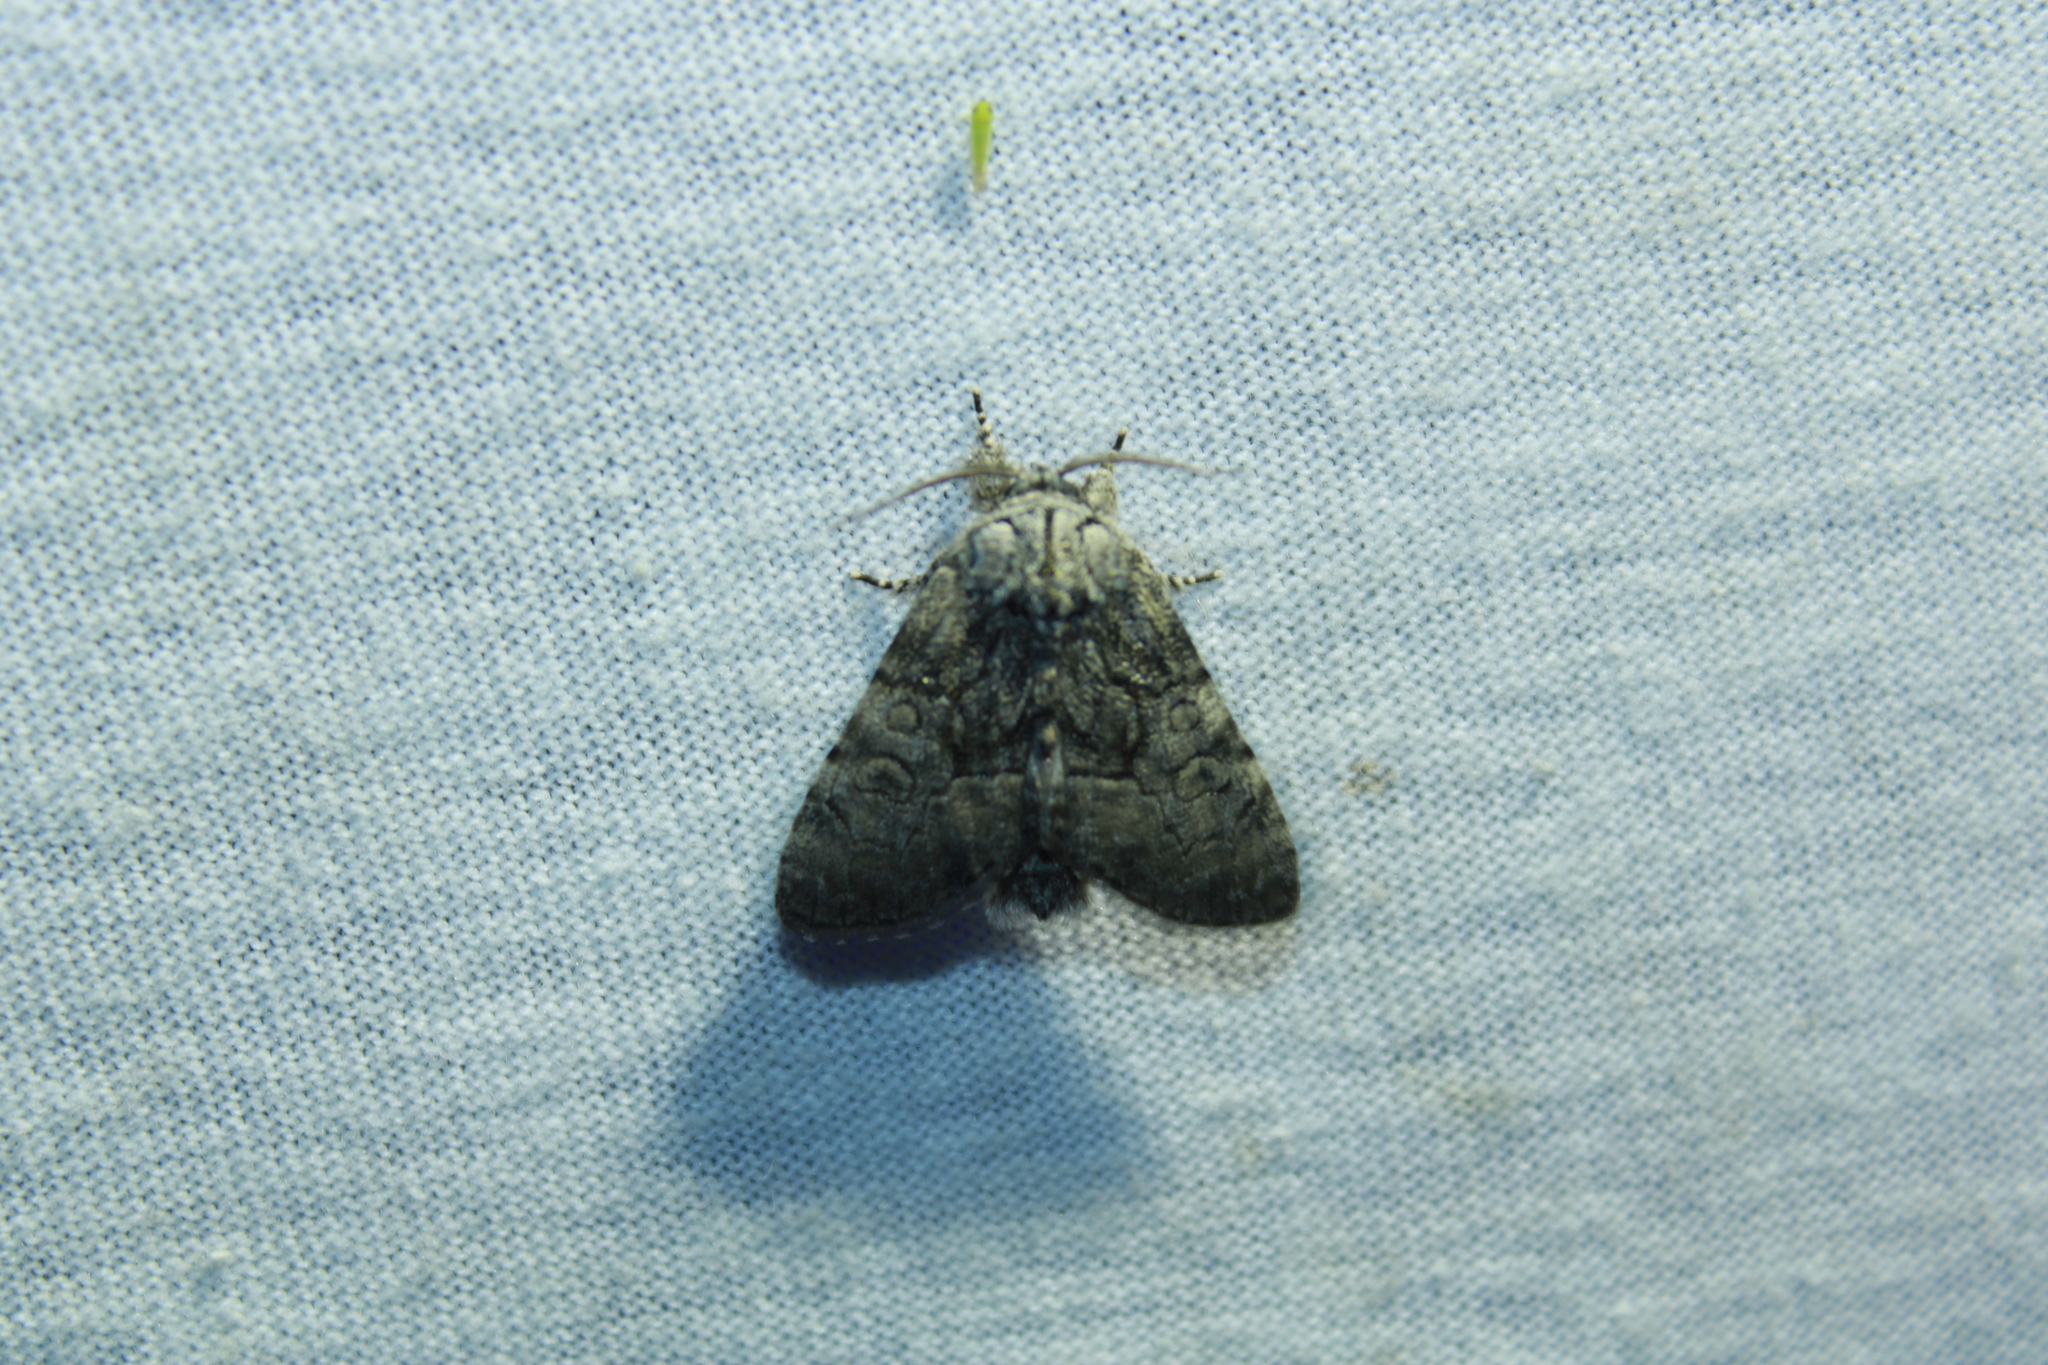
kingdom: Animalia
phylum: Arthropoda
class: Insecta
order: Lepidoptera
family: Noctuidae
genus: Raphia
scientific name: Raphia frater
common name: Brother
